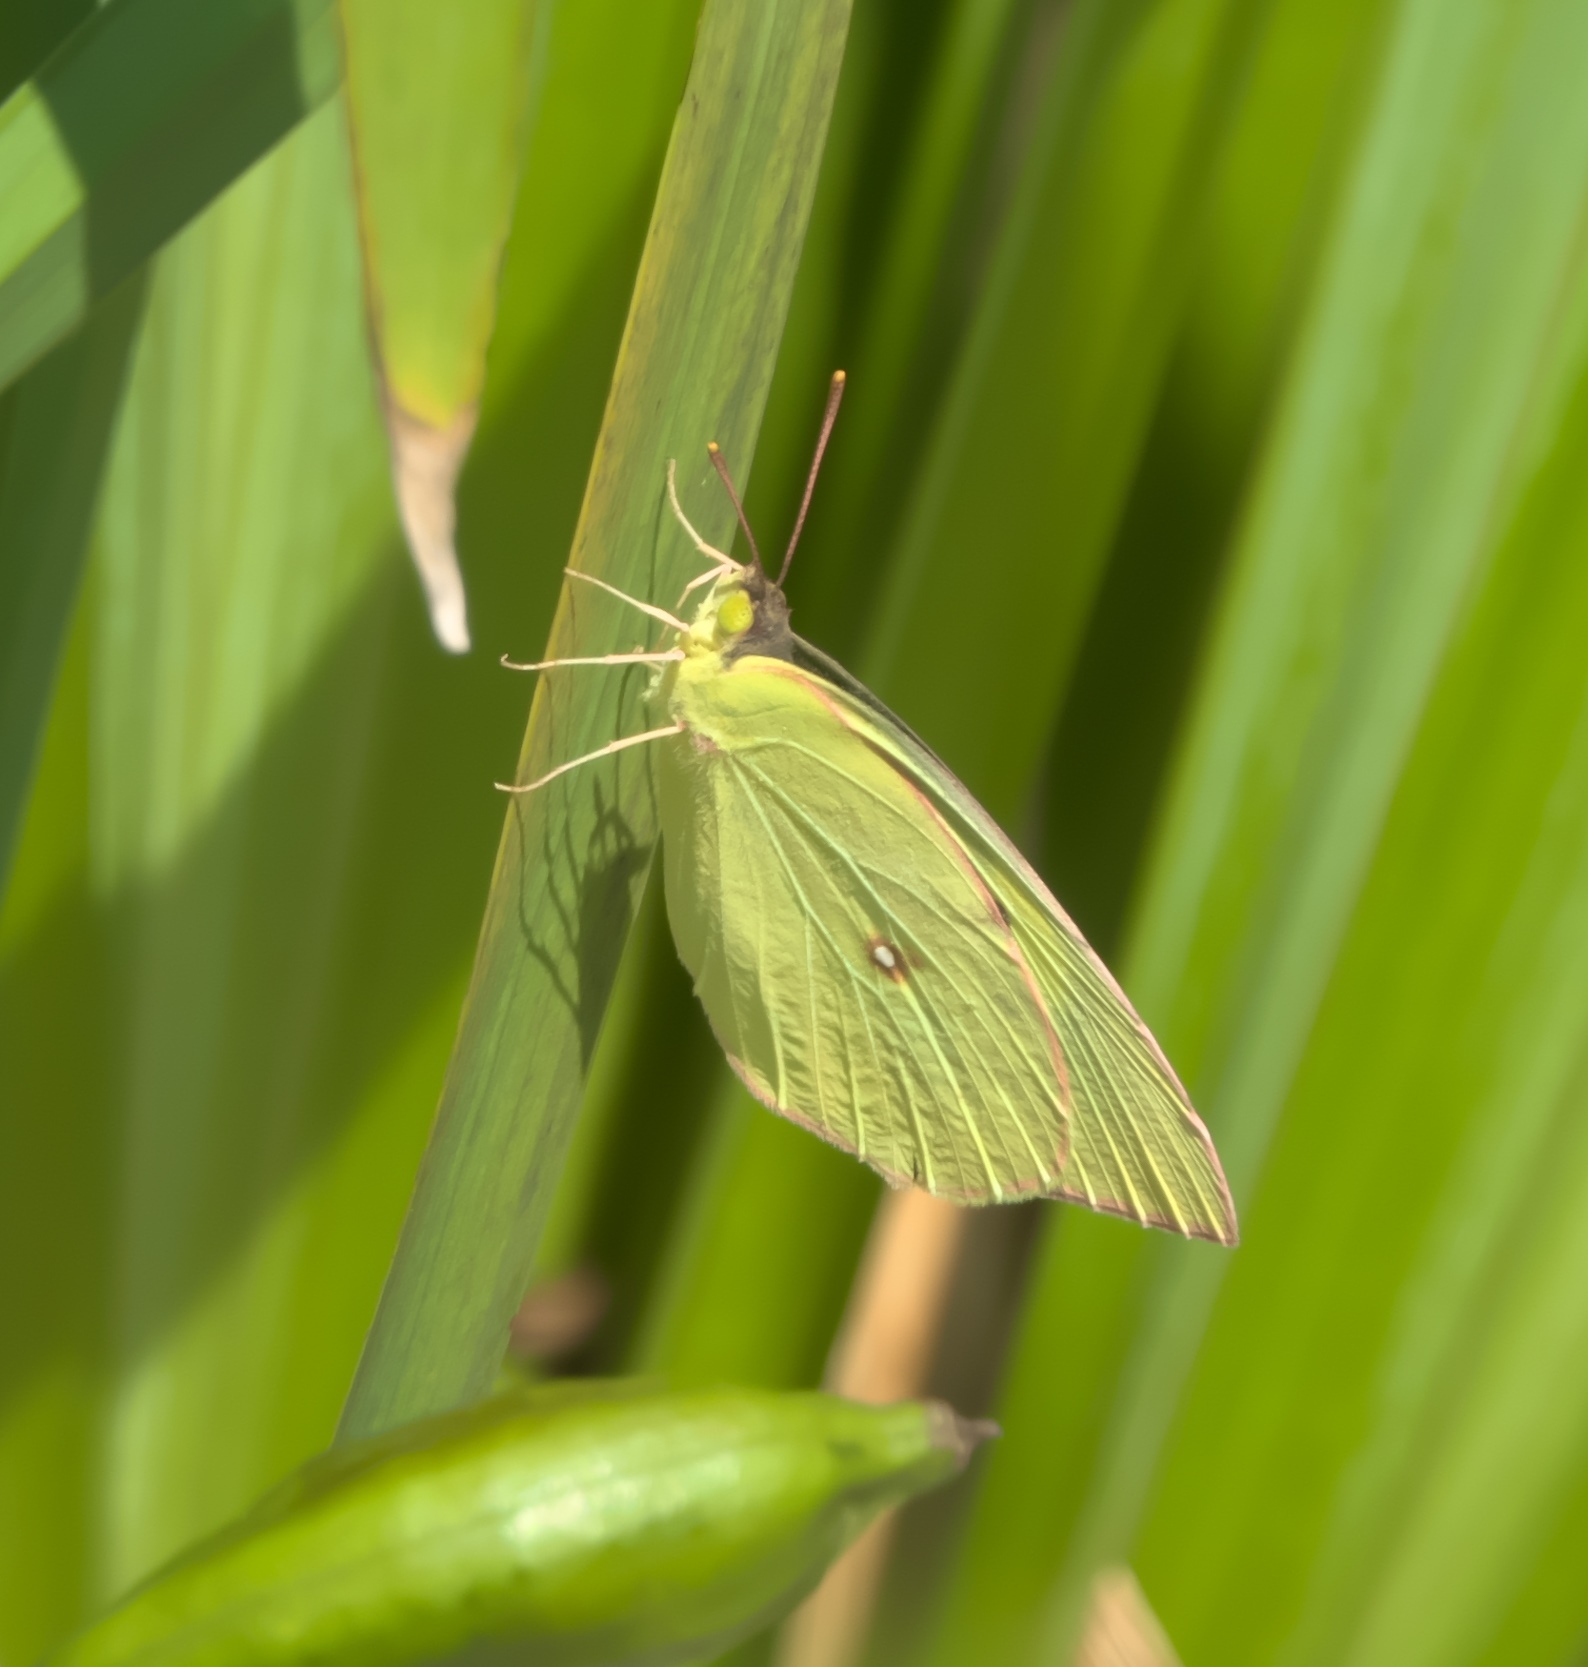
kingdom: Animalia
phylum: Arthropoda
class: Insecta
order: Lepidoptera
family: Pieridae
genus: Zerene
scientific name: Zerene cesonia
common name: Southern dogface
